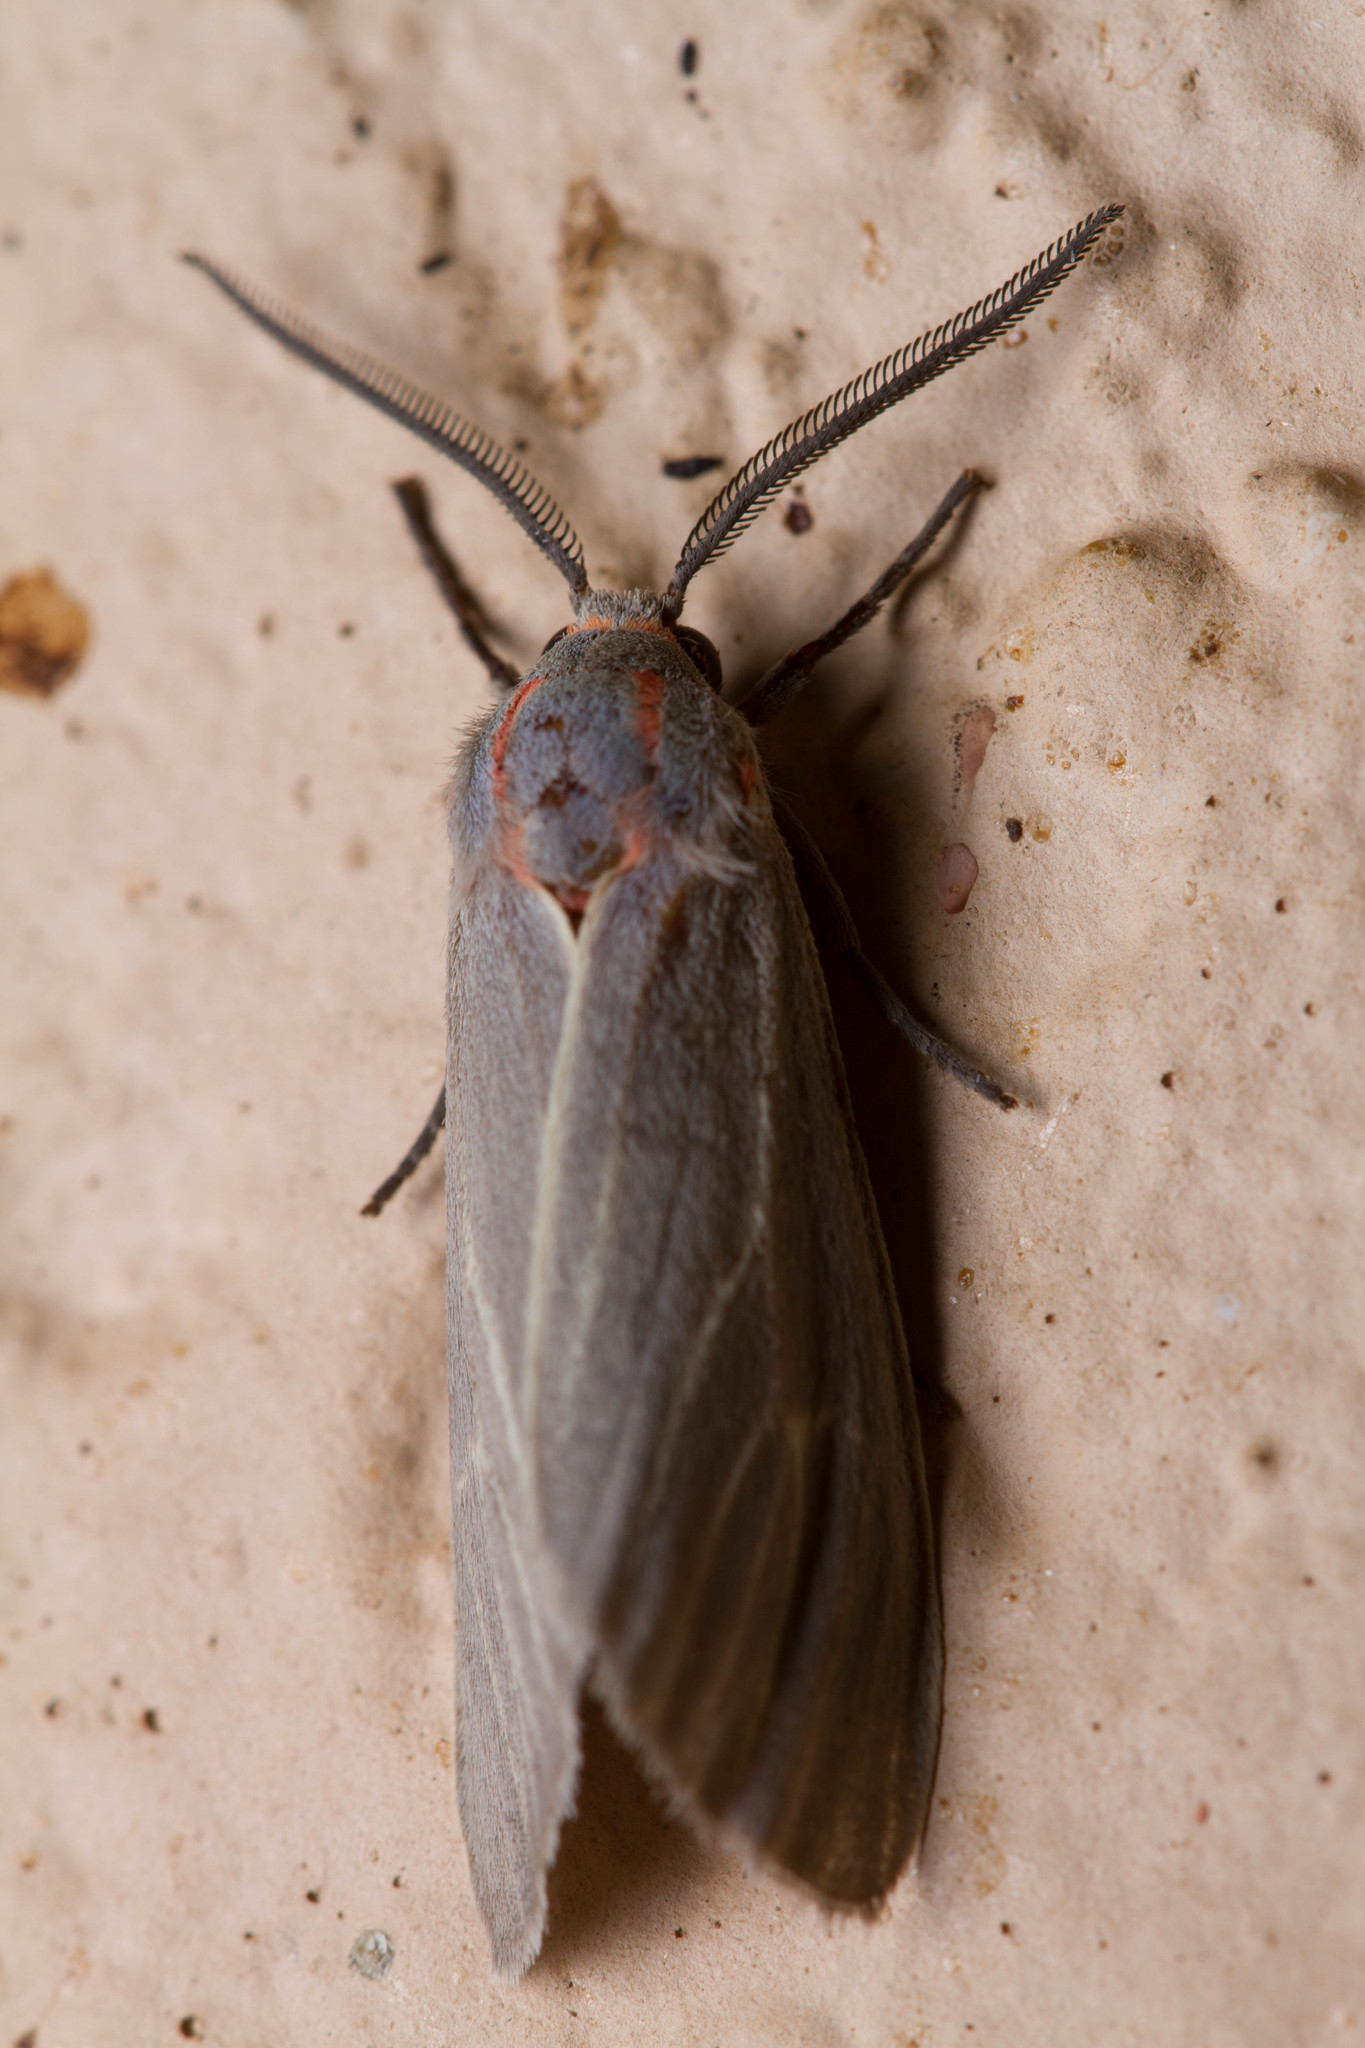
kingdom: Animalia
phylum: Arthropoda
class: Insecta
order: Lepidoptera
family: Erebidae
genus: Pygarctia
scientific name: Pygarctia pterygostigma
